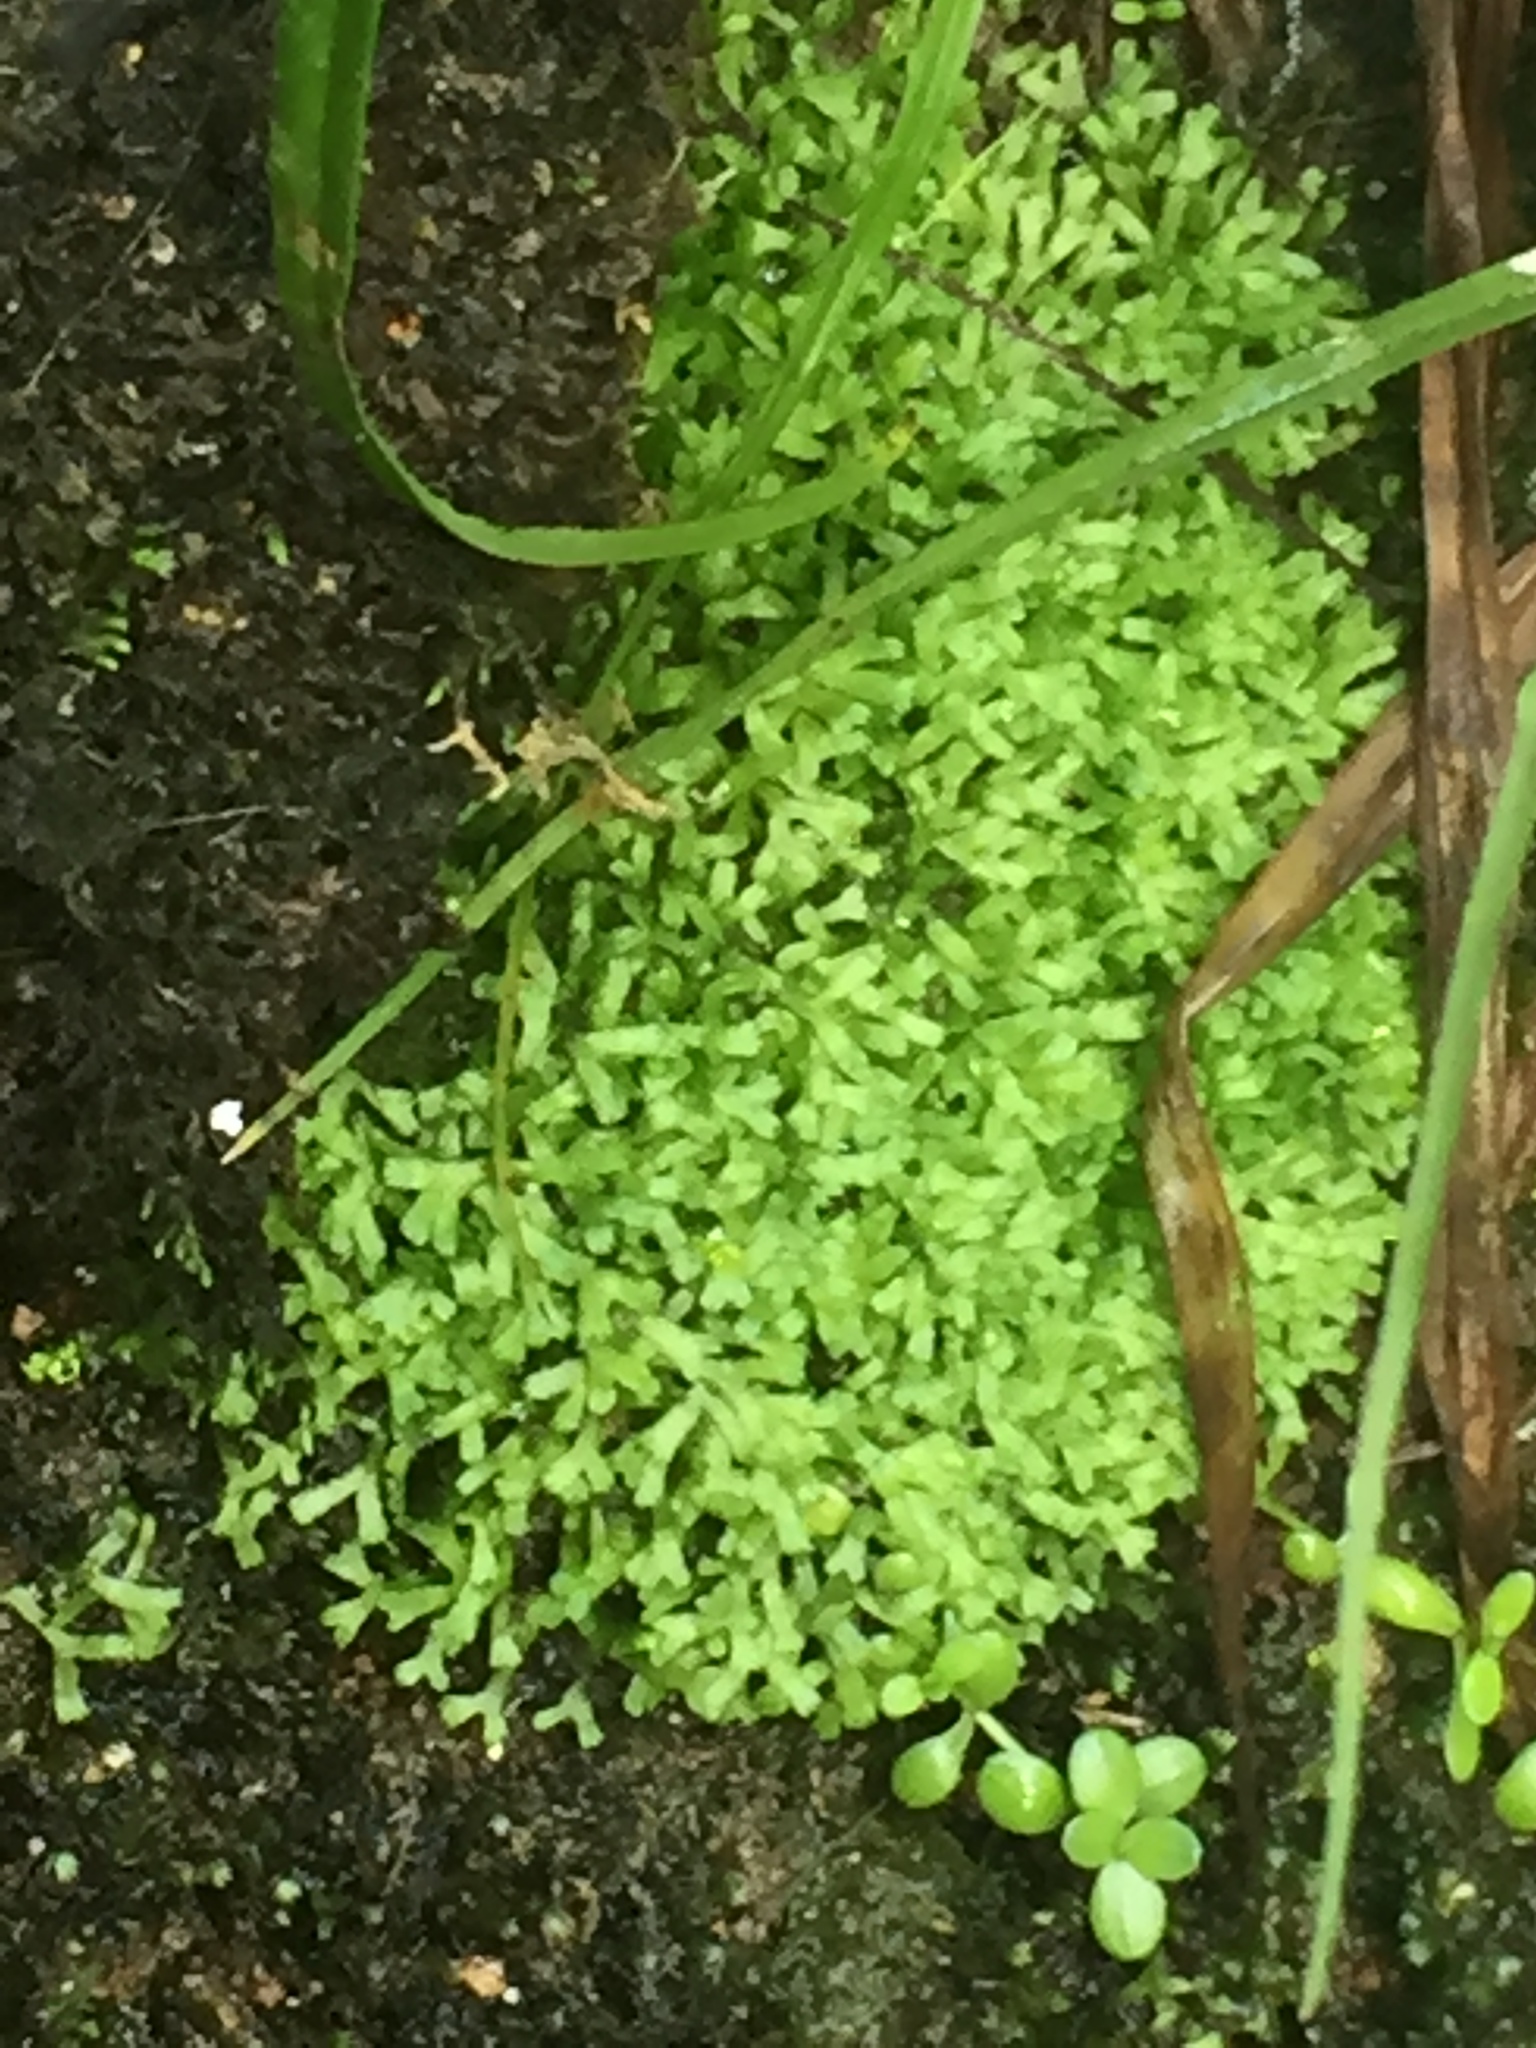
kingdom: Plantae
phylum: Marchantiophyta
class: Marchantiopsida
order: Marchantiales
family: Ricciaceae
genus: Riccia
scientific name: Riccia fluitans
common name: Floating crystalwort
